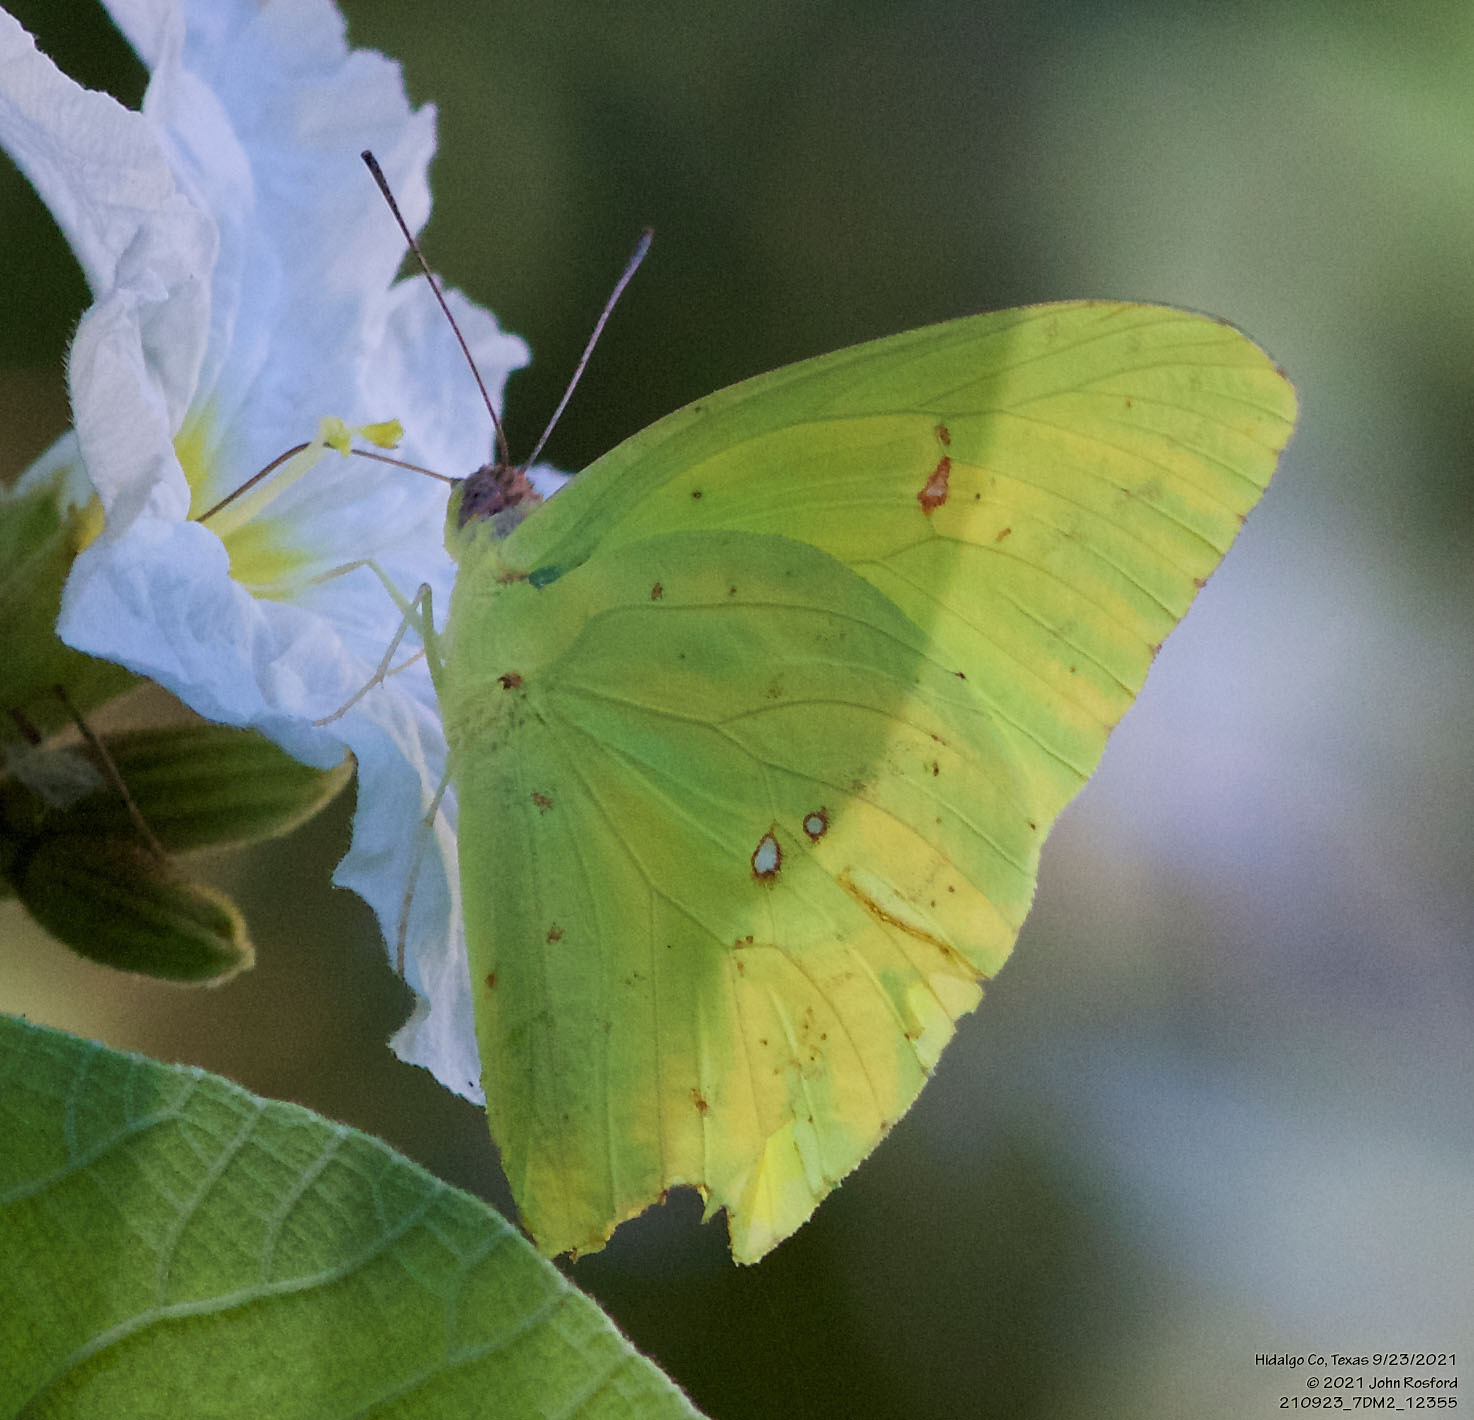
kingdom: Animalia
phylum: Arthropoda
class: Insecta
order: Lepidoptera
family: Pieridae
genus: Phoebis
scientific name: Phoebis sennae
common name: Cloudless sulphur
